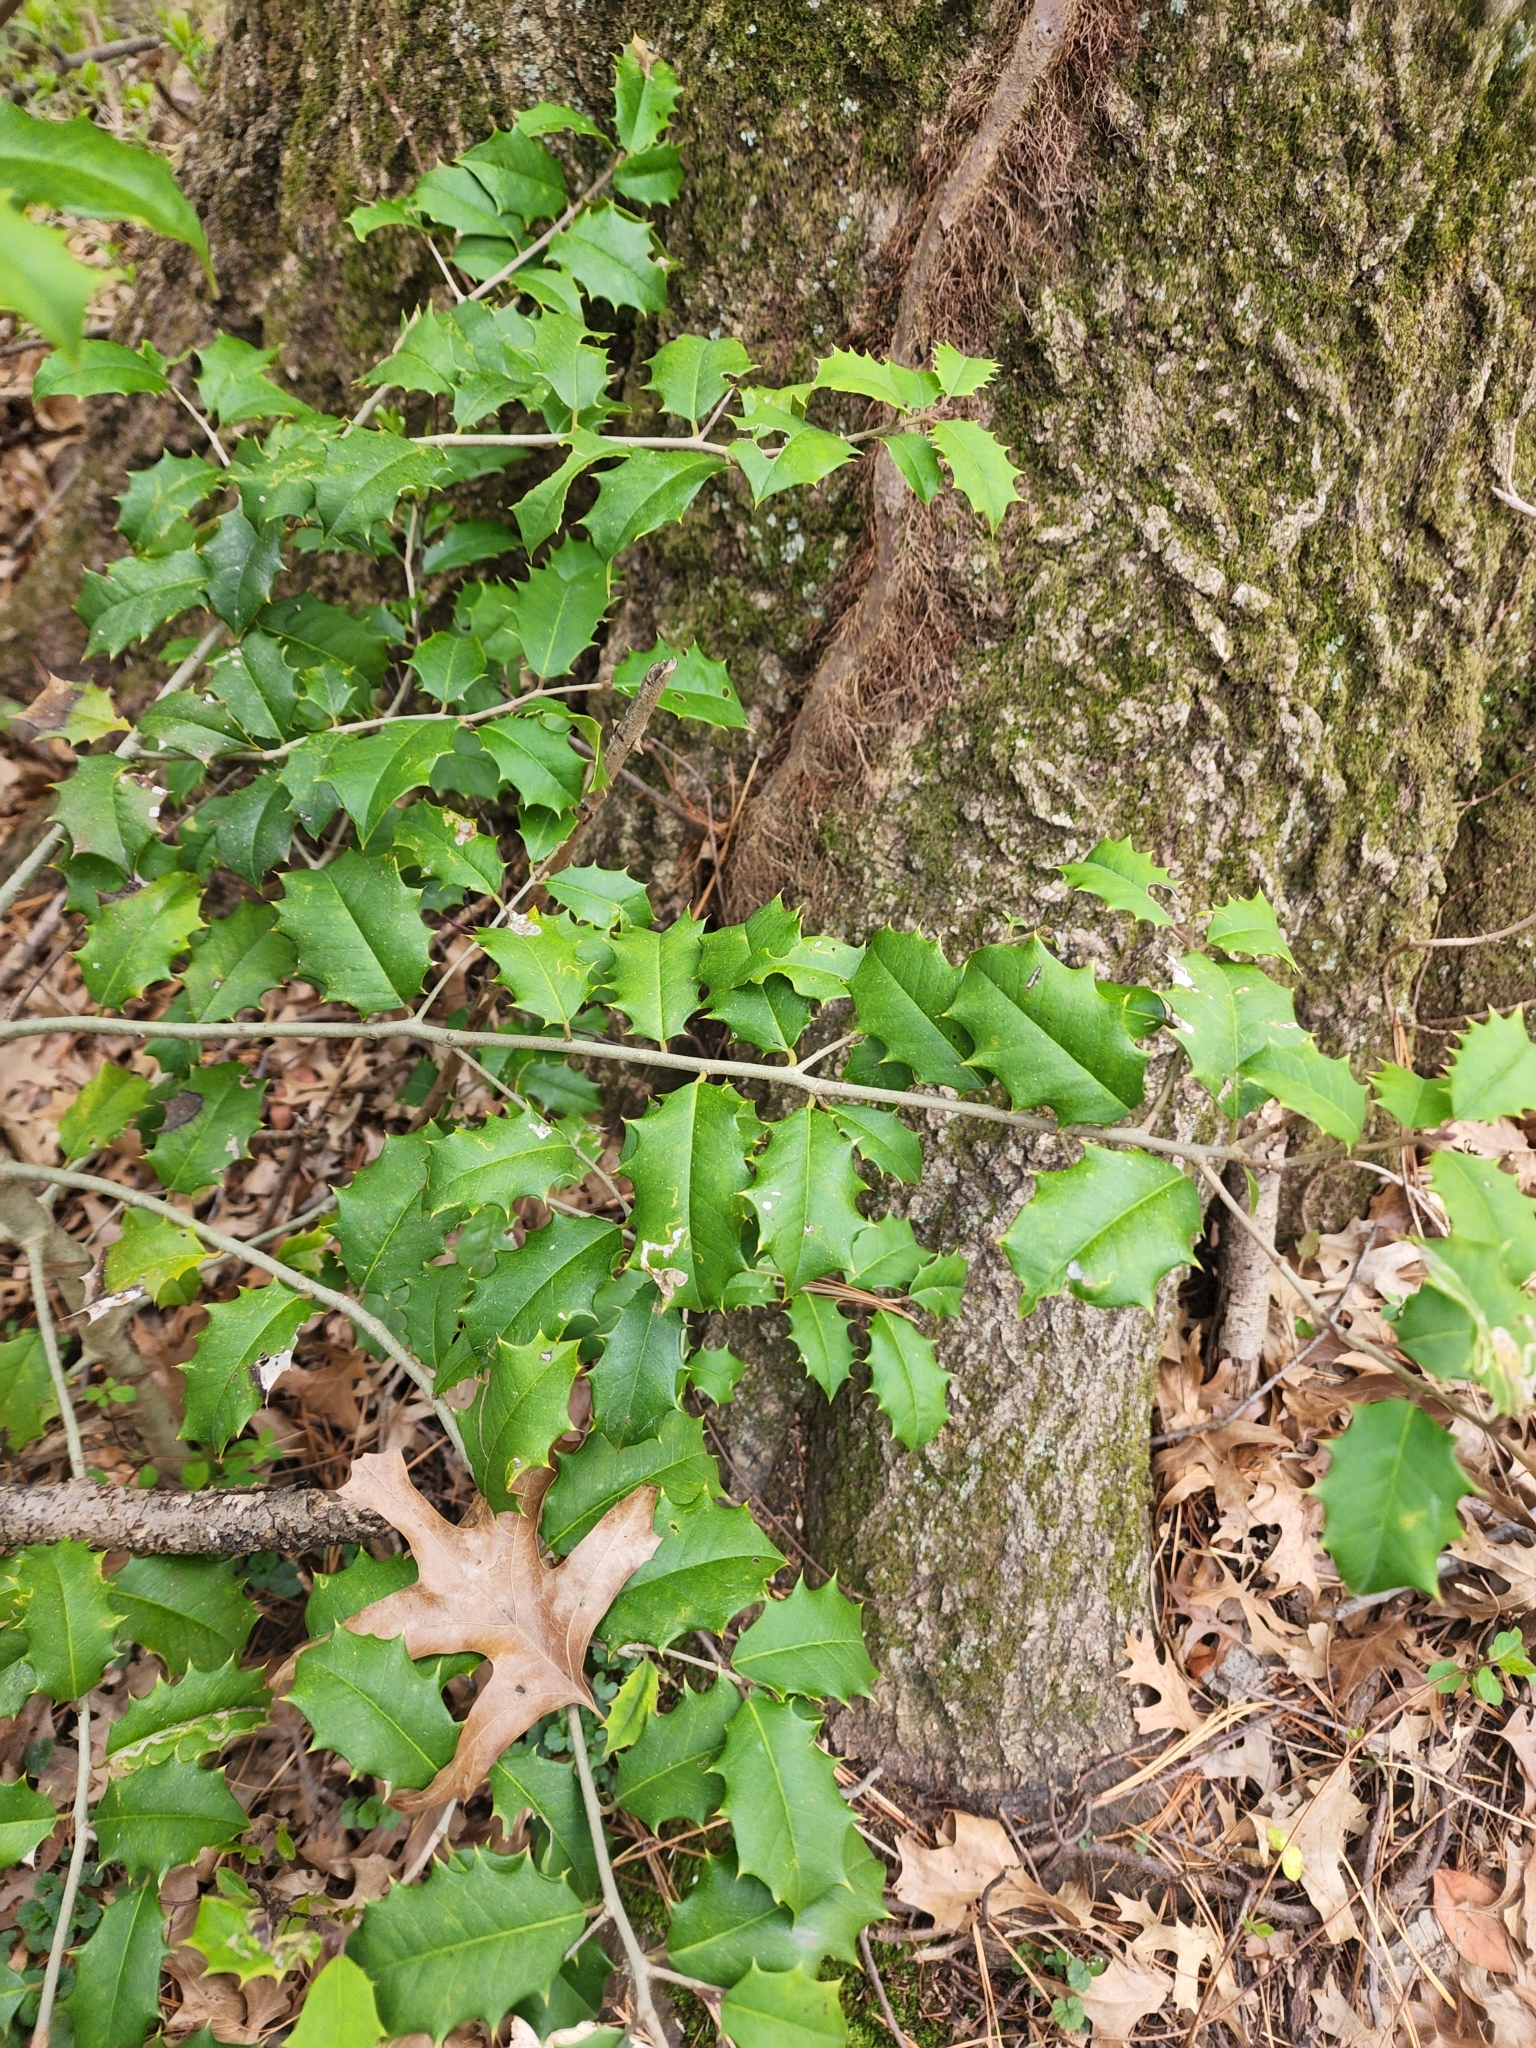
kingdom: Plantae
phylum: Tracheophyta
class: Magnoliopsida
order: Aquifoliales
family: Aquifoliaceae
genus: Ilex
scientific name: Ilex opaca
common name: American holly
